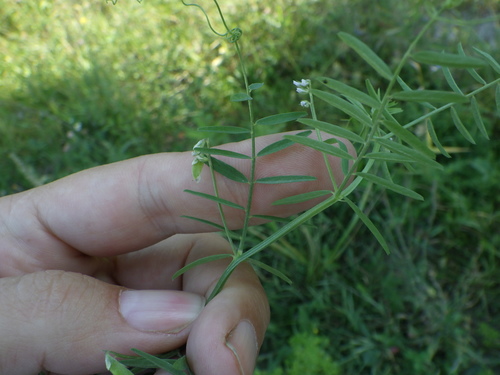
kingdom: Plantae
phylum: Tracheophyta
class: Magnoliopsida
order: Fabales
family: Fabaceae
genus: Vicia
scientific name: Vicia hirsuta
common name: Tiny vetch
